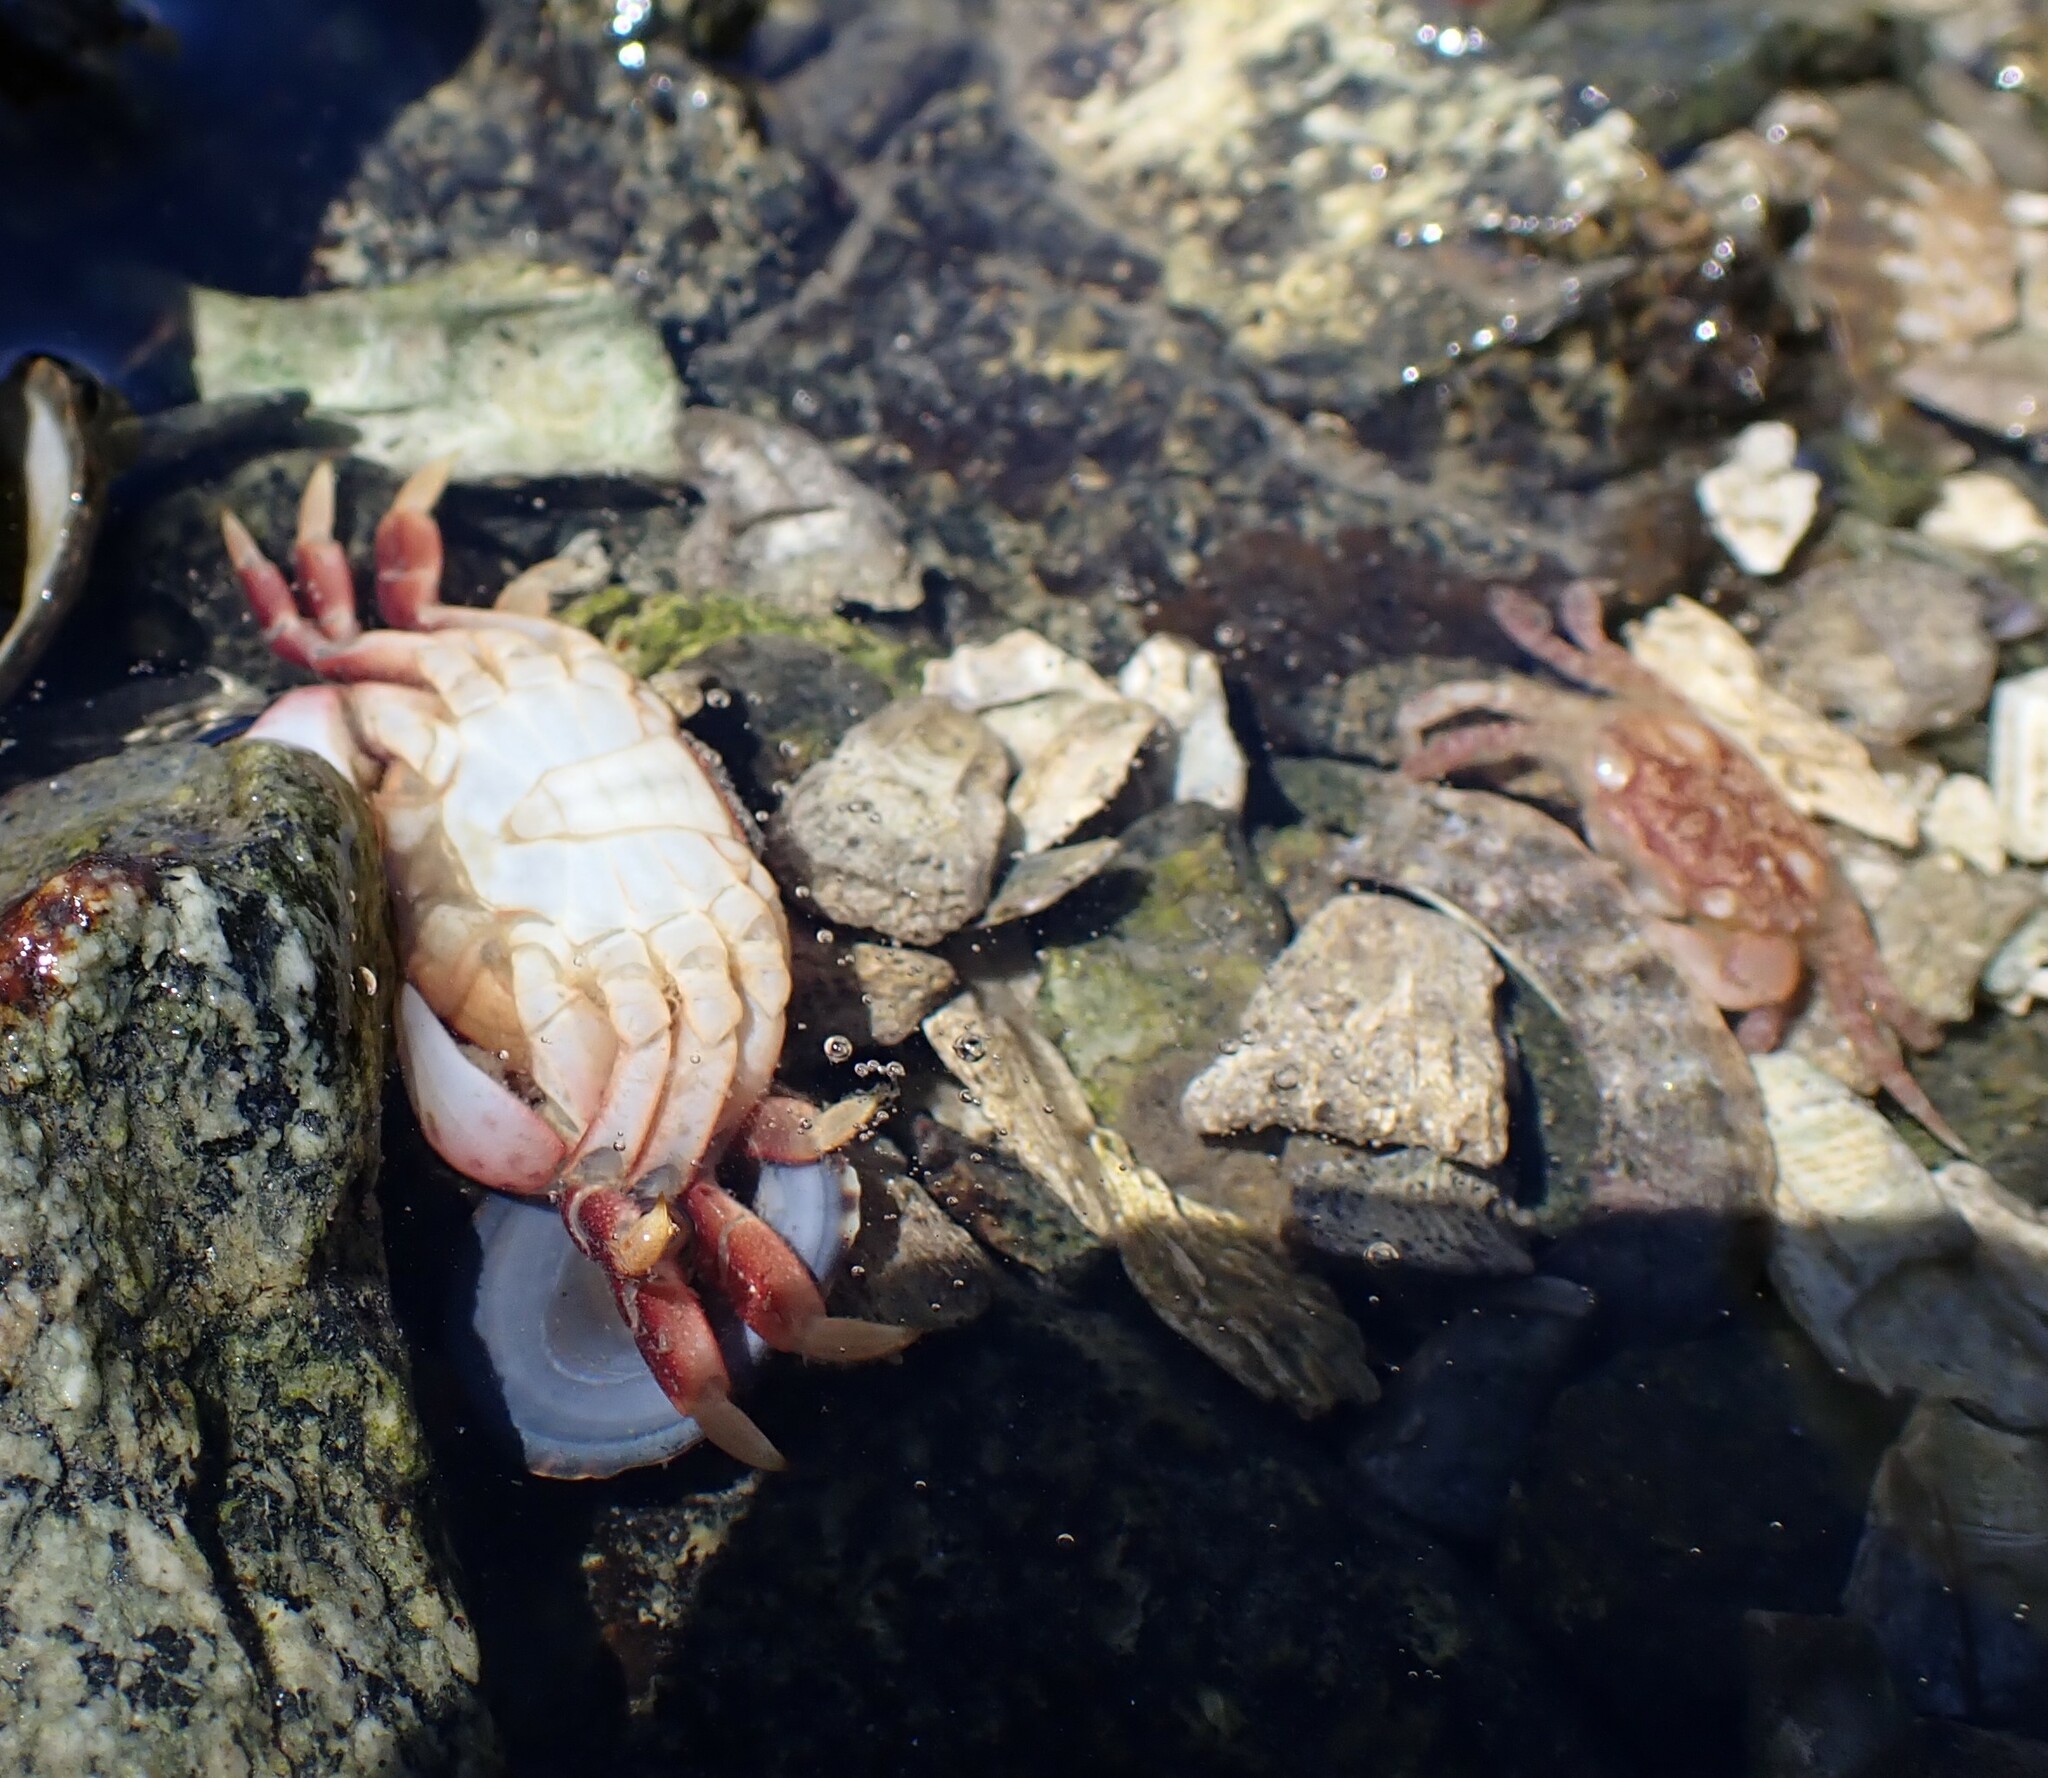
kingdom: Animalia
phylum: Arthropoda
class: Malacostraca
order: Decapoda
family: Varunidae
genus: Hemigrapsus
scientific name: Hemigrapsus nudus
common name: Purple shore crab
